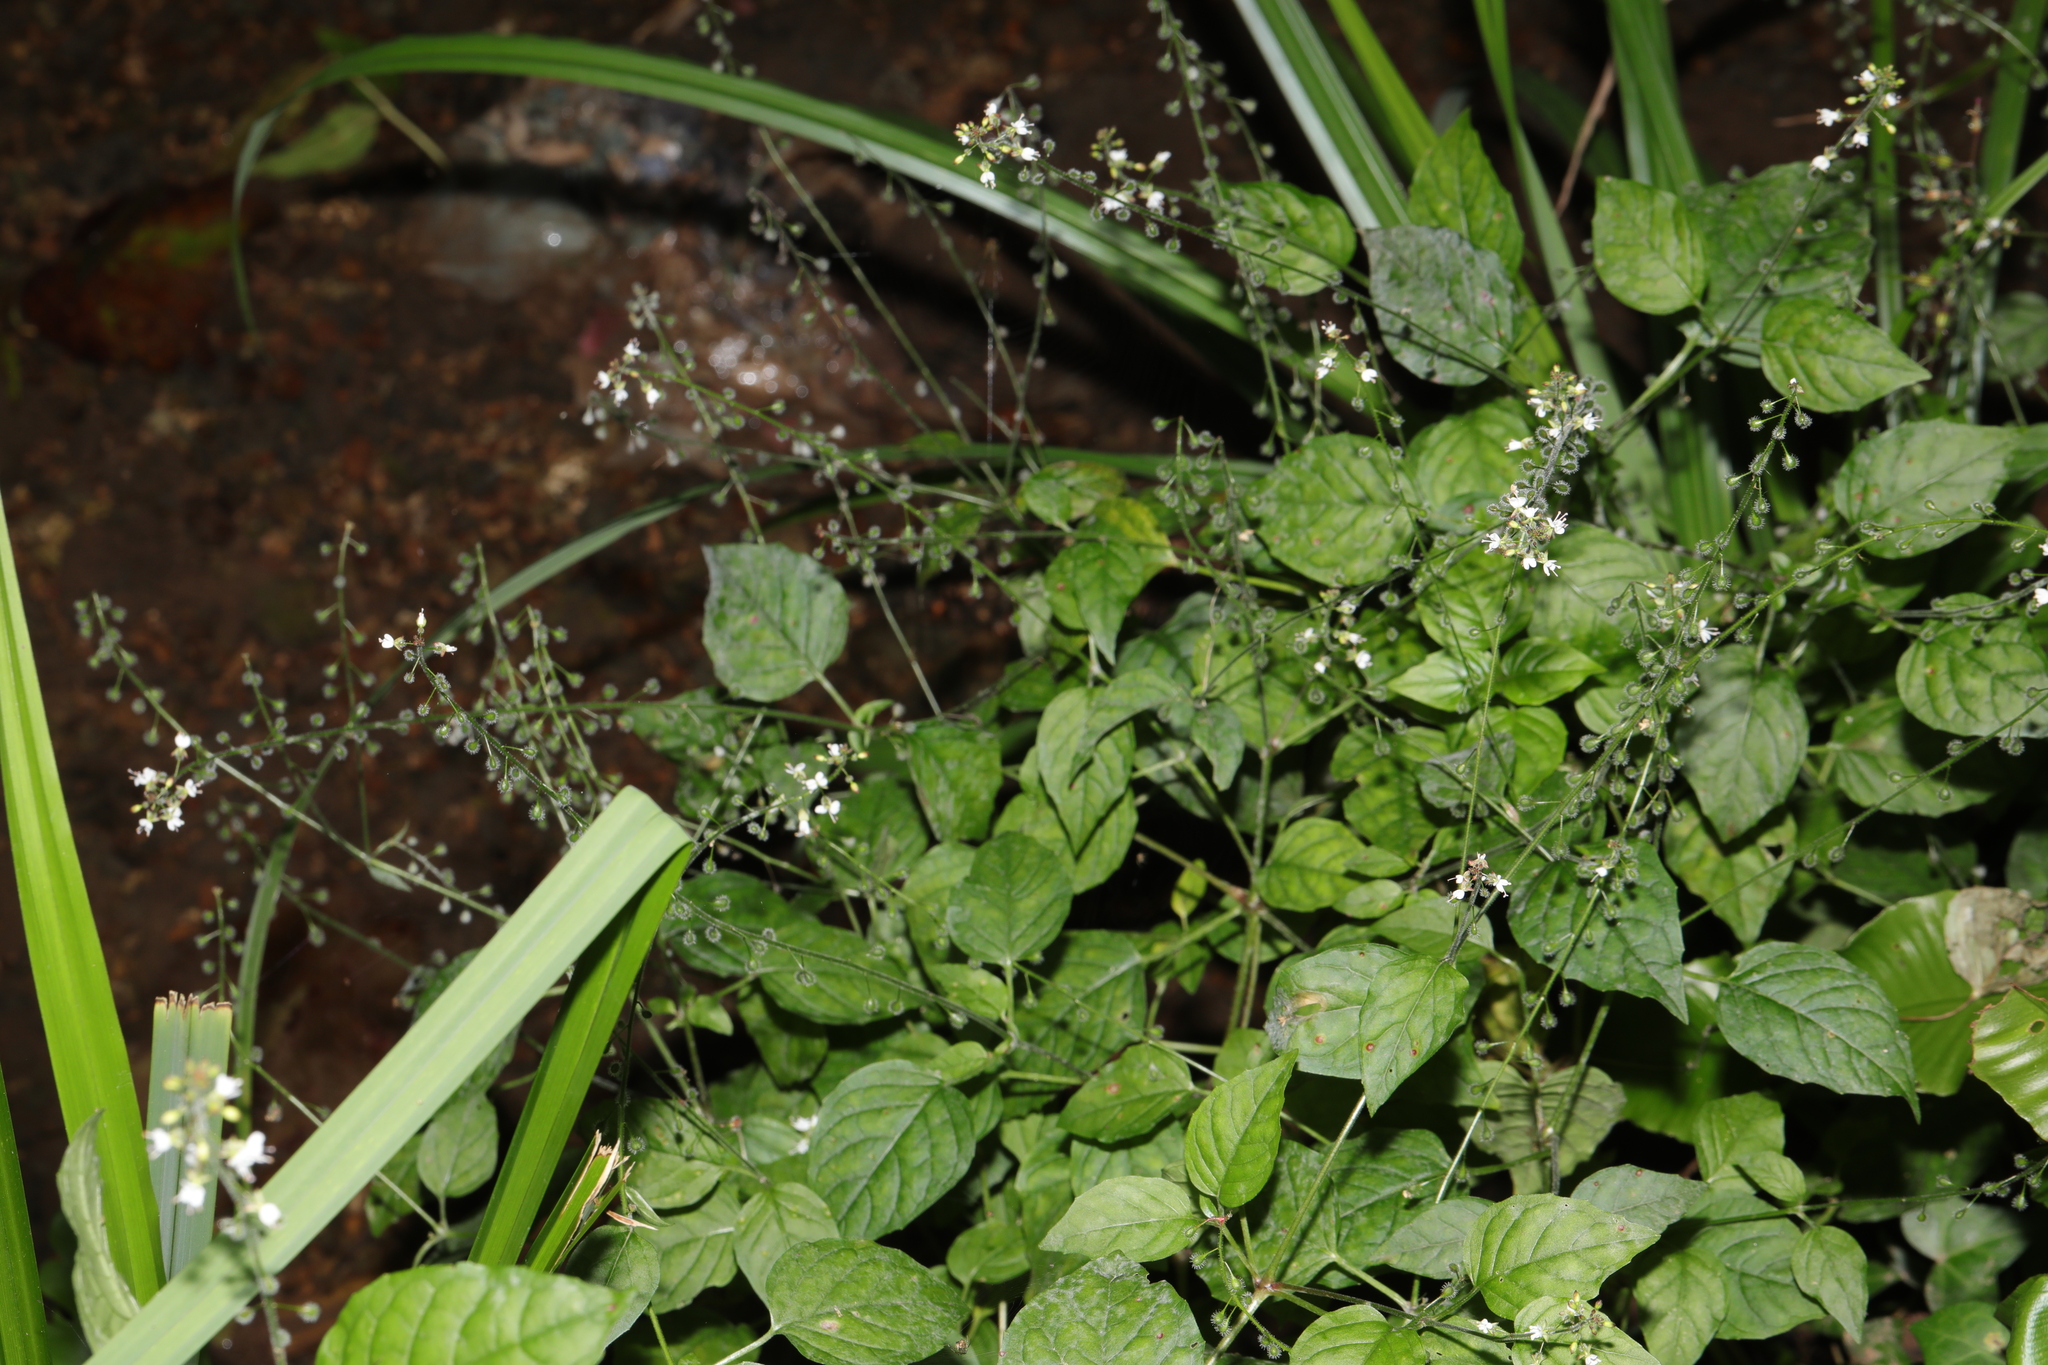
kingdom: Plantae
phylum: Tracheophyta
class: Magnoliopsida
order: Myrtales
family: Onagraceae
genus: Circaea
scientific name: Circaea lutetiana
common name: Enchanter's-nightshade
